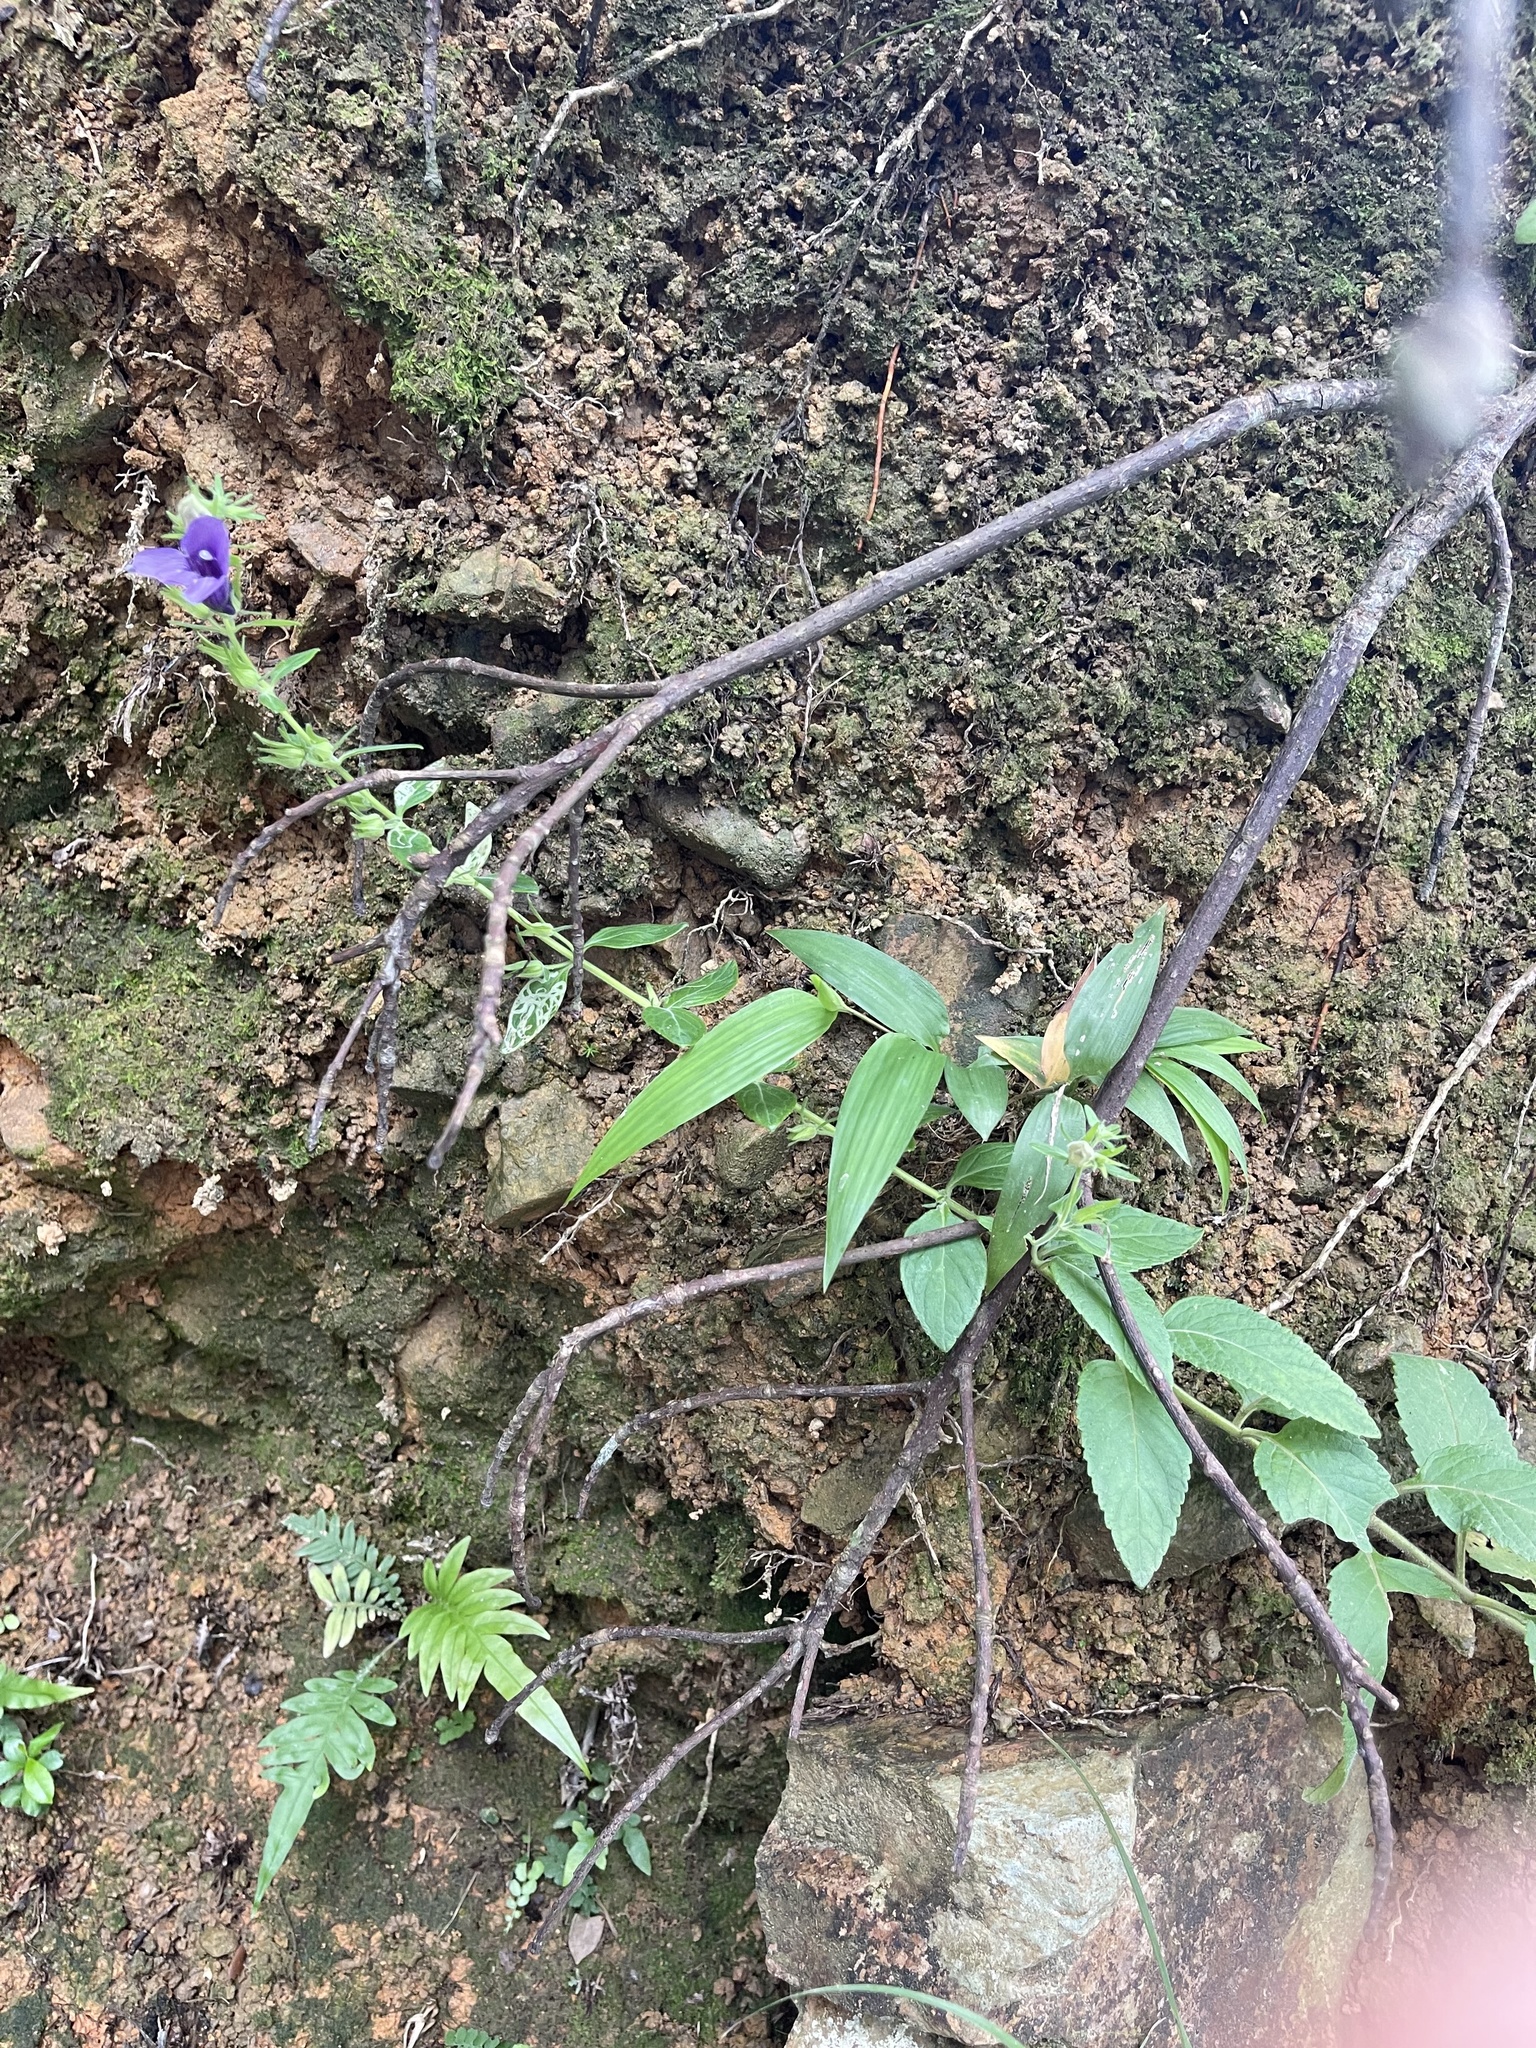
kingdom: Plantae
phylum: Tracheophyta
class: Magnoliopsida
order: Lamiales
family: Plantaginaceae
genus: Adenosma
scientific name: Adenosma glutinosa
